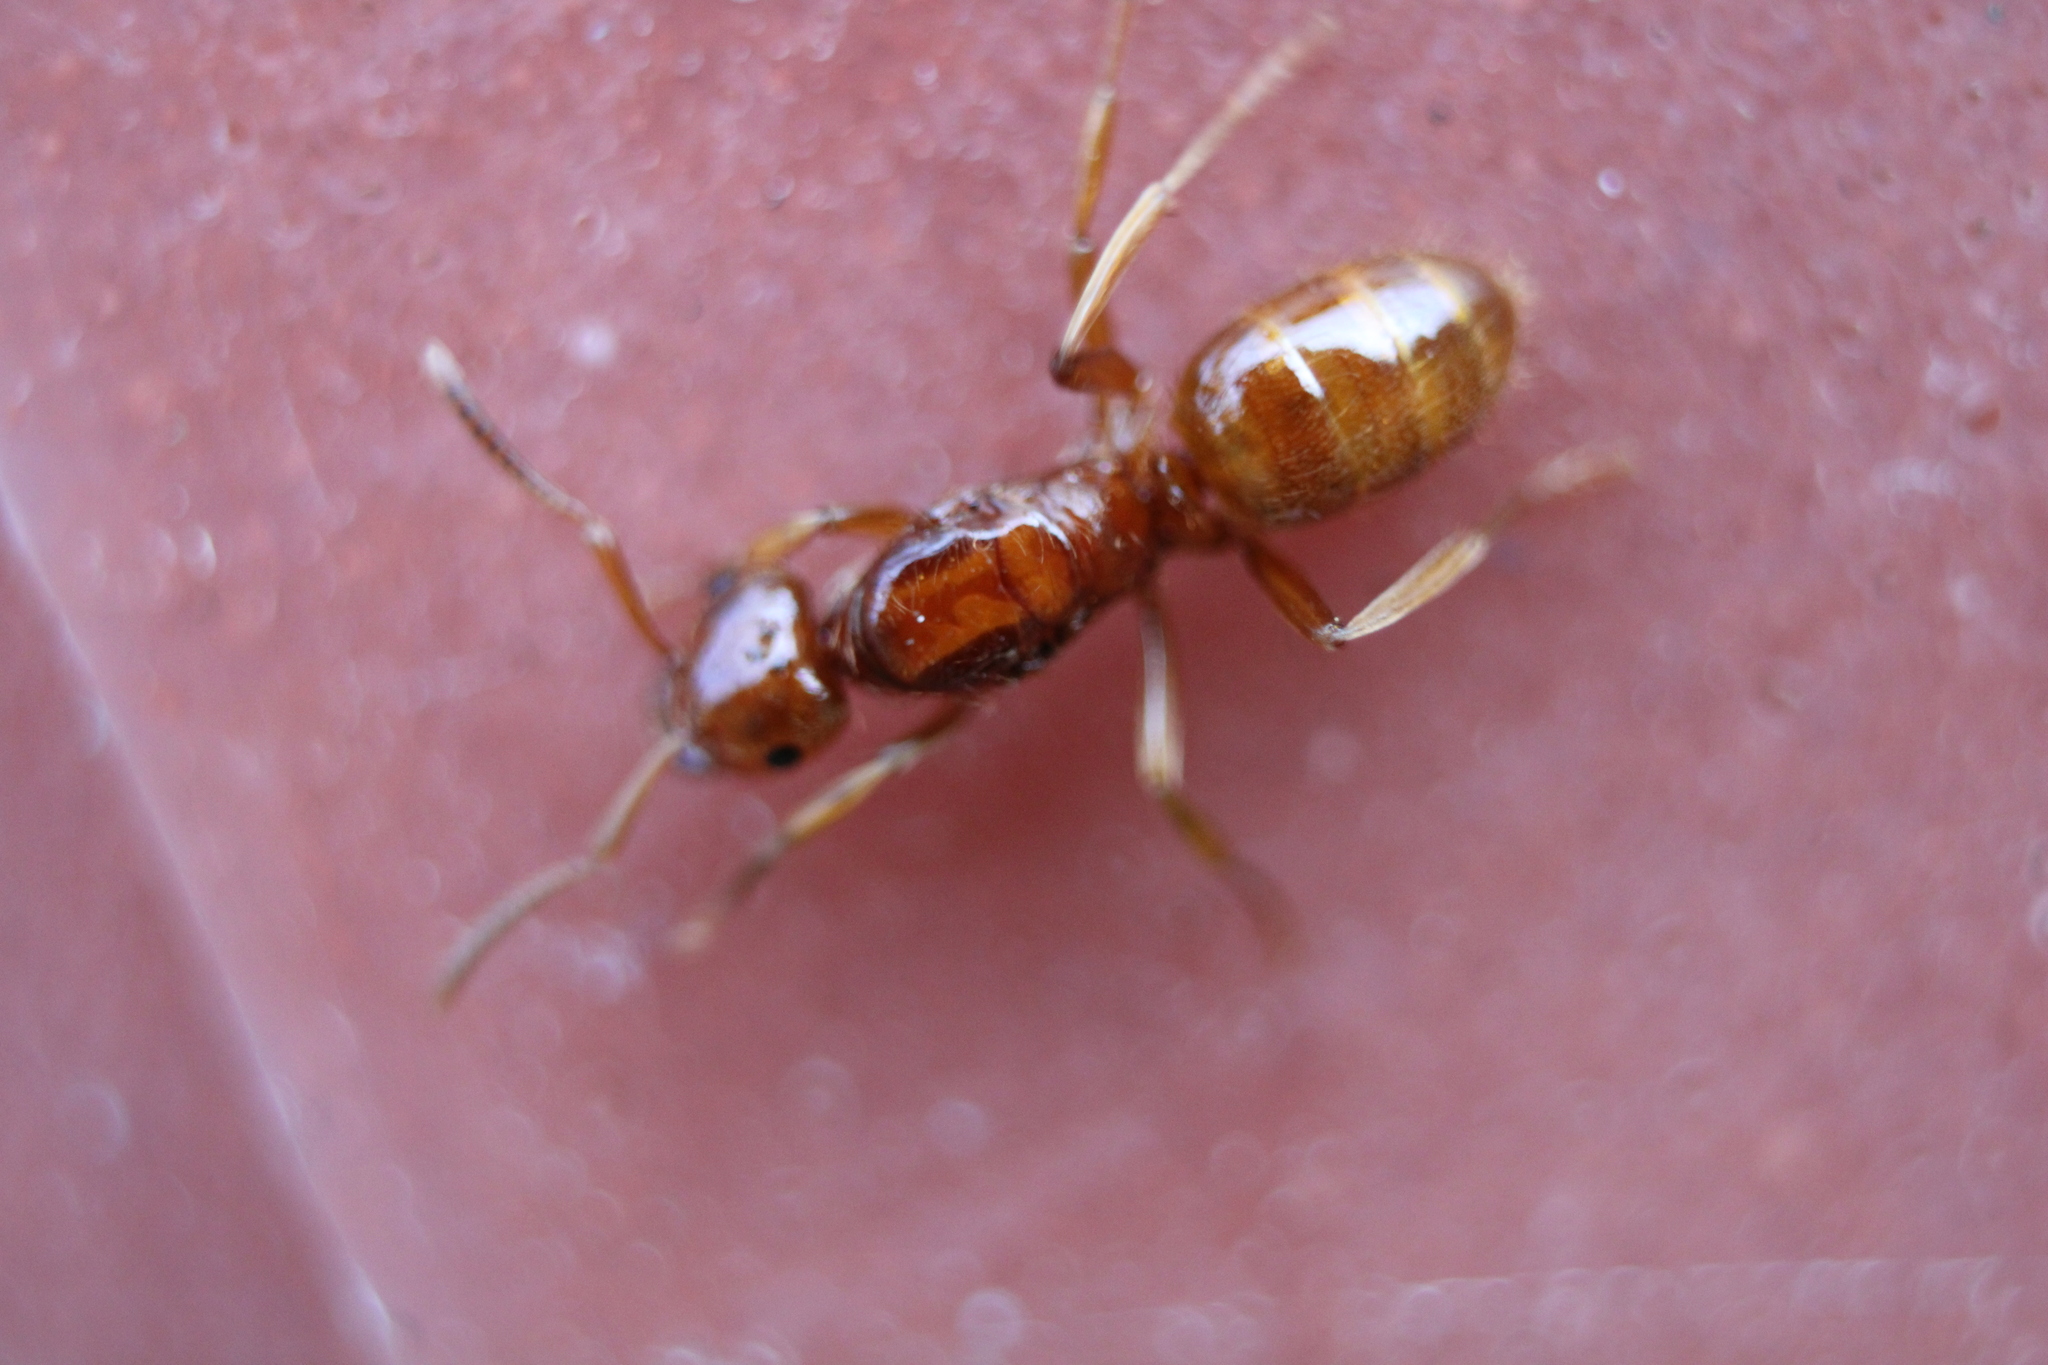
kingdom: Animalia
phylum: Arthropoda
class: Insecta
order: Hymenoptera
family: Formicidae
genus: Acanthomyops
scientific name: Acanthomyops interjectus
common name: Larger yellow ant
